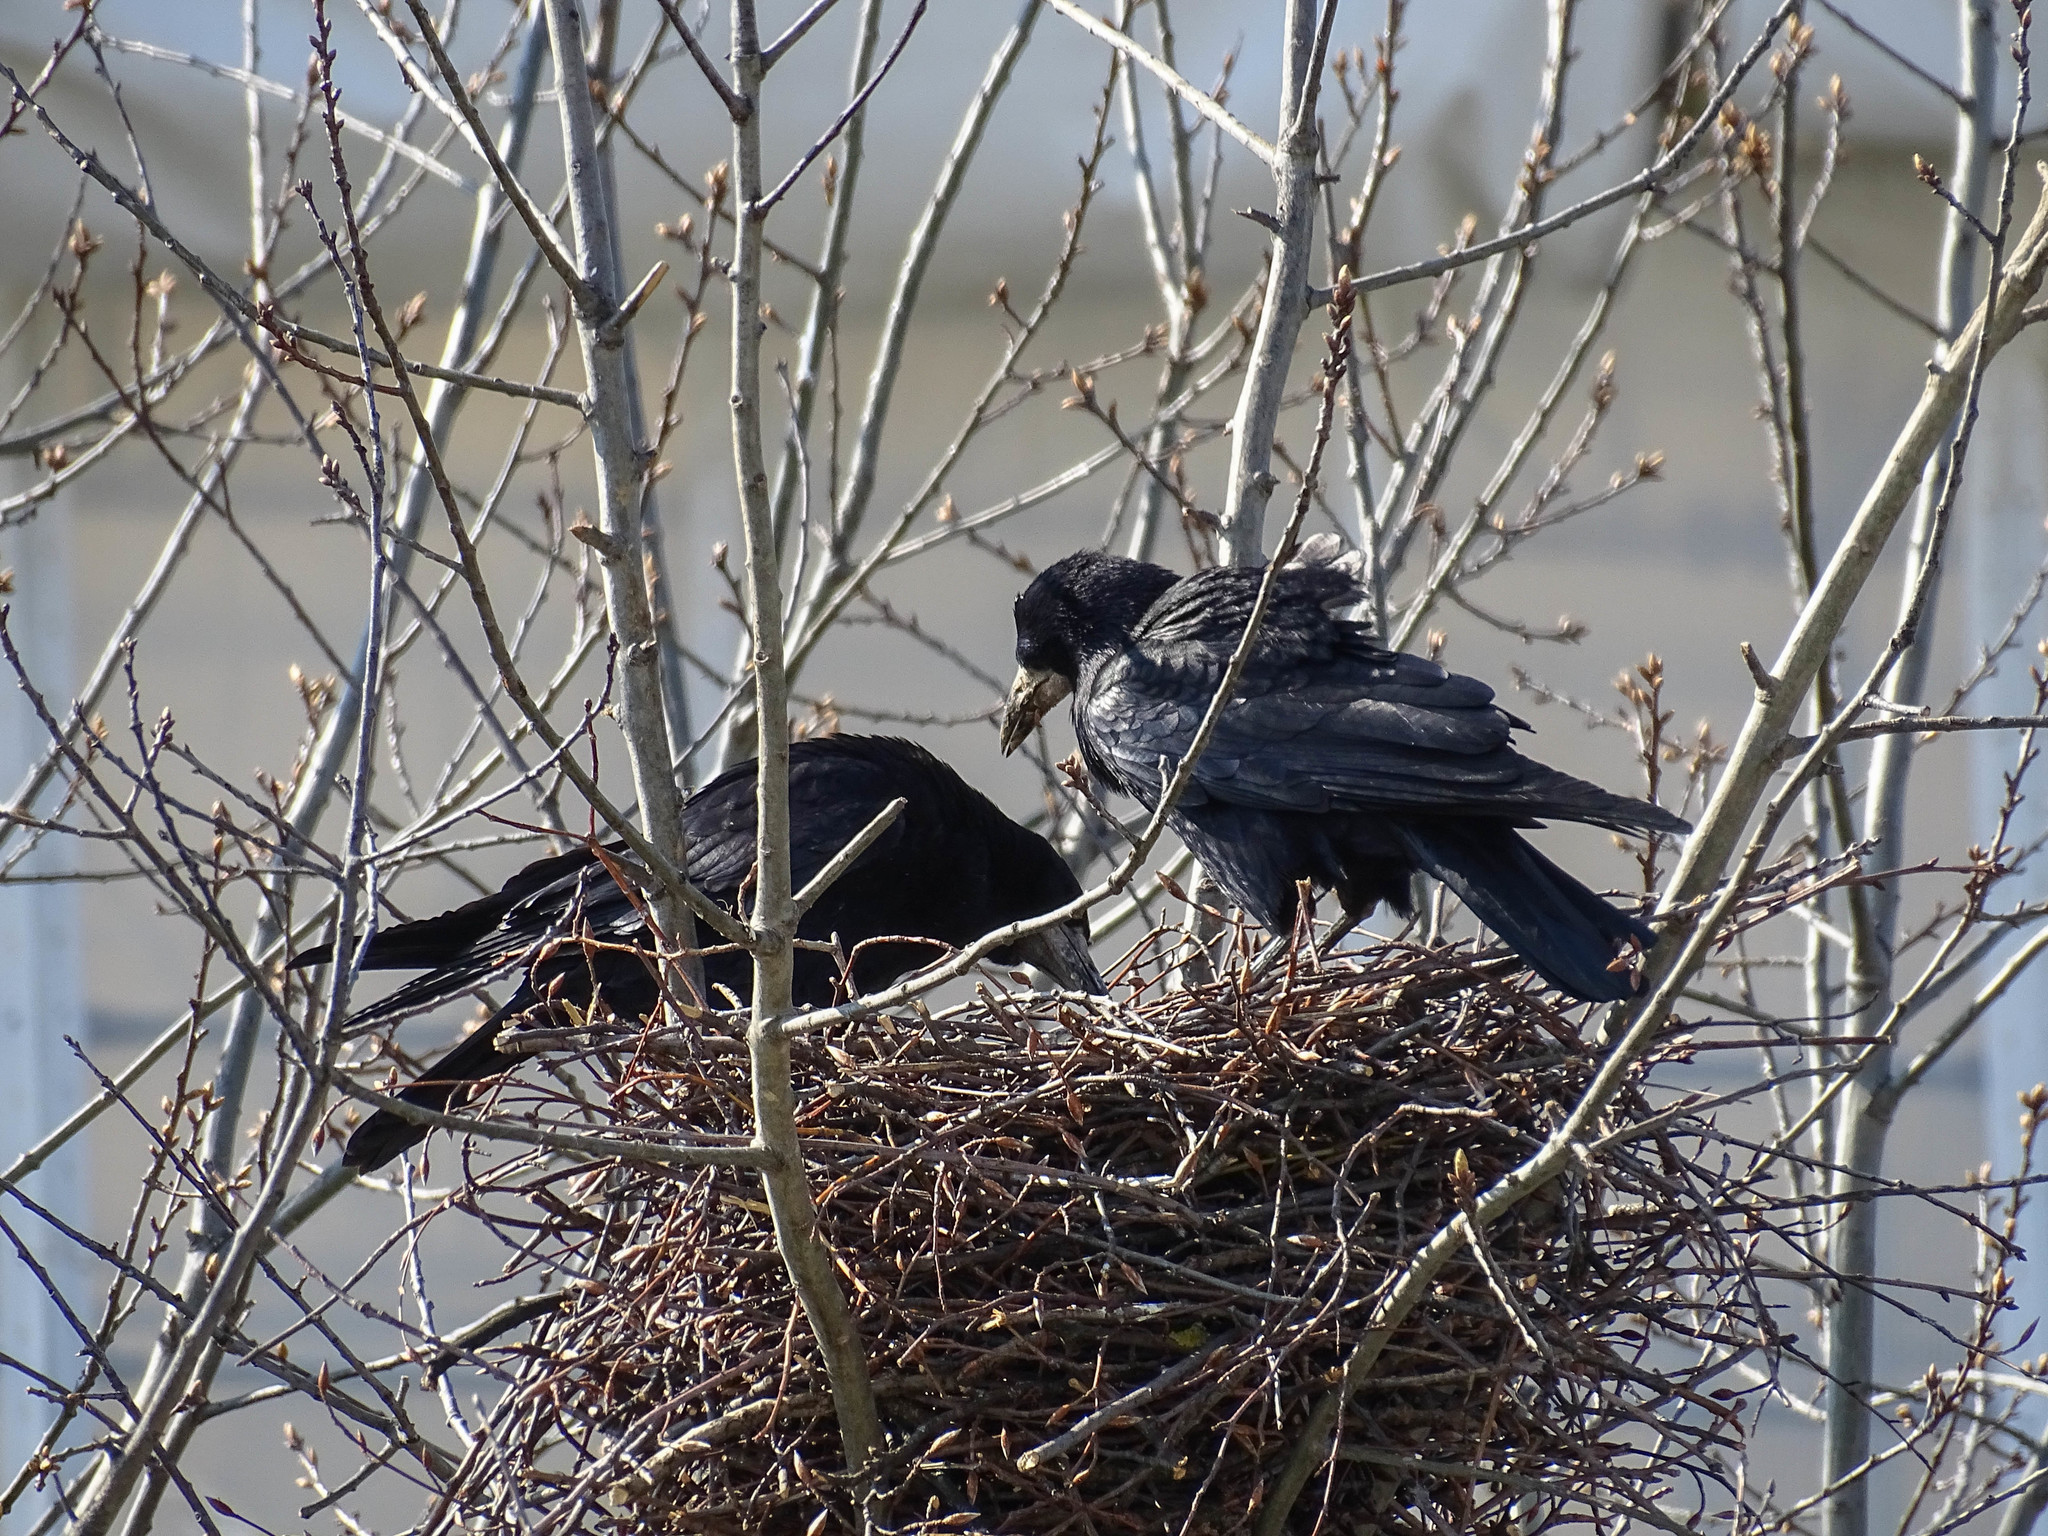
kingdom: Animalia
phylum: Chordata
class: Aves
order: Passeriformes
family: Corvidae
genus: Corvus
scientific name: Corvus frugilegus
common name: Rook
